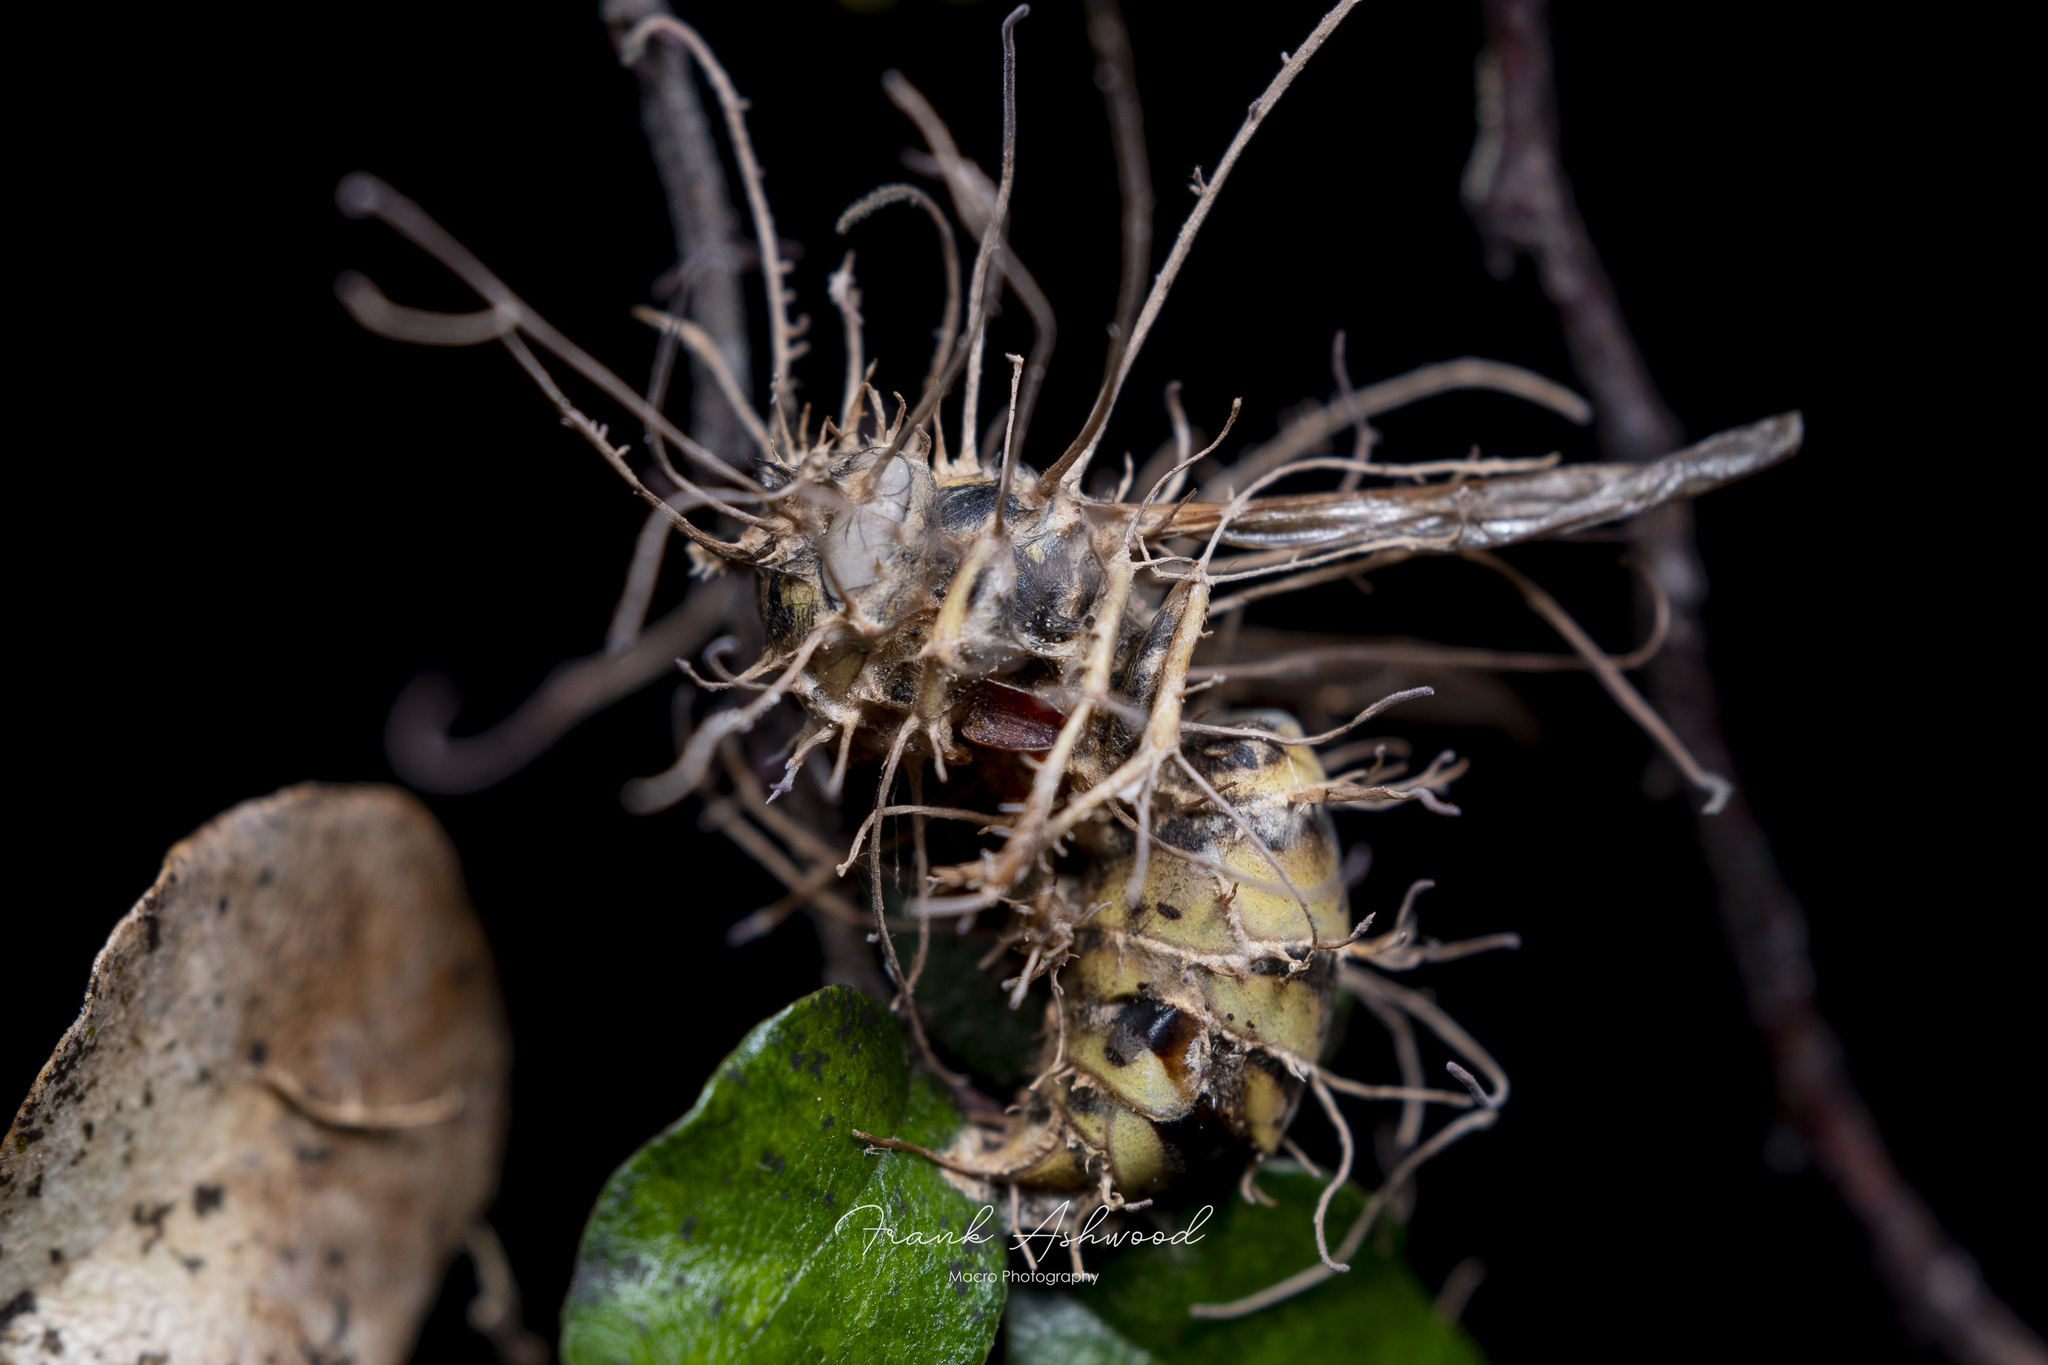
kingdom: Fungi
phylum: Ascomycota
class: Sordariomycetes
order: Hypocreales
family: Ophiocordycipitaceae
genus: Ophiocordyceps
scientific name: Ophiocordyceps humbertii
